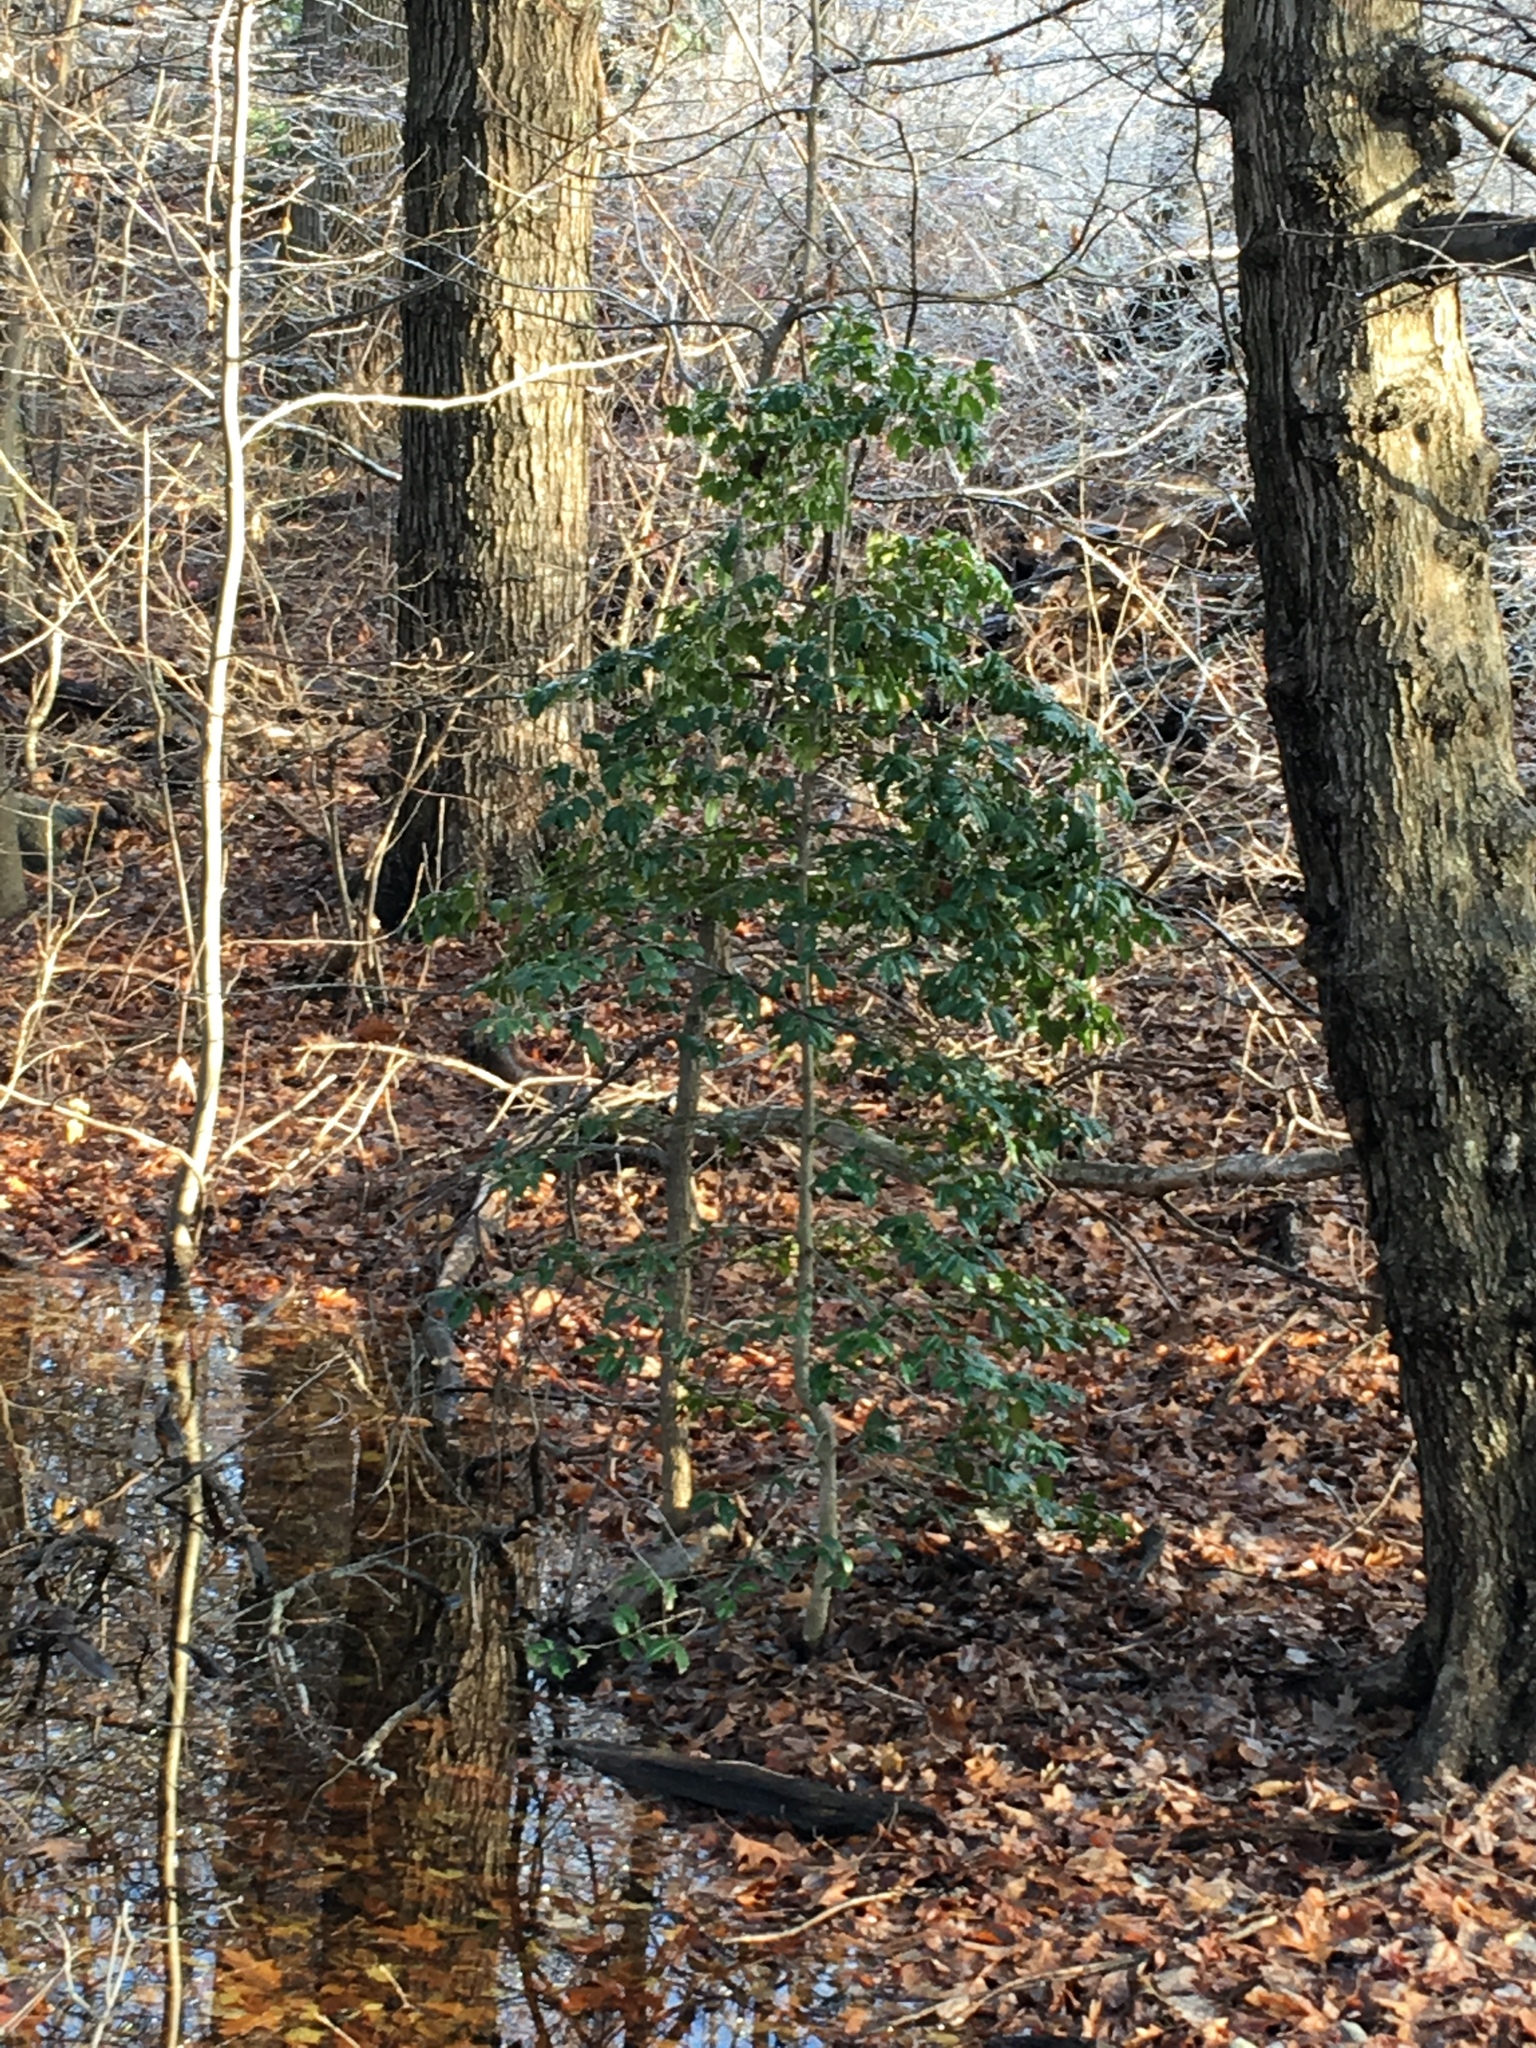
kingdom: Plantae
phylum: Tracheophyta
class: Magnoliopsida
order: Aquifoliales
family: Aquifoliaceae
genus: Ilex
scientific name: Ilex opaca
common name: American holly
